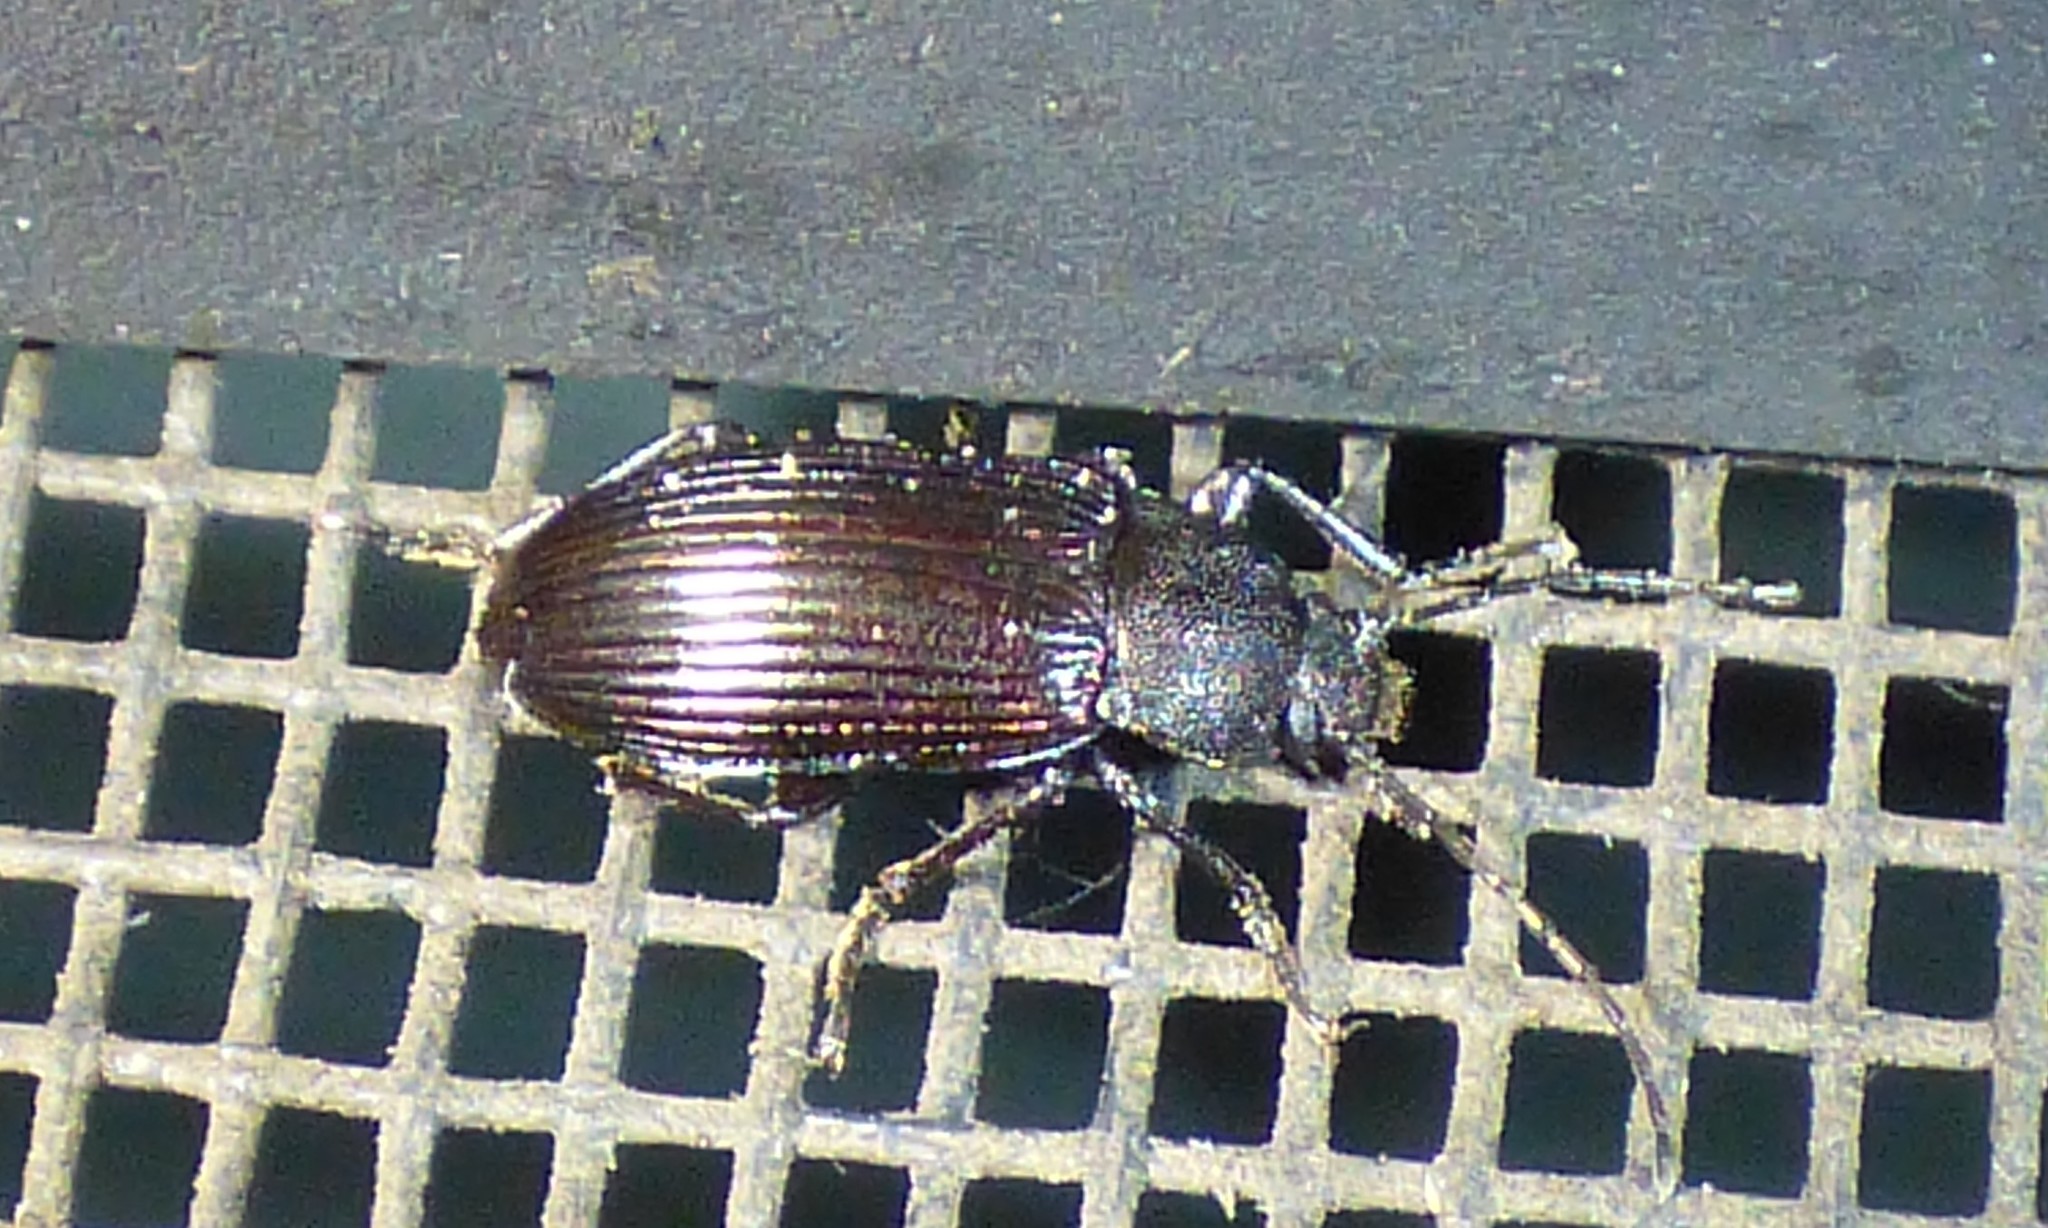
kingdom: Animalia
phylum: Arthropoda
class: Insecta
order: Coleoptera
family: Tenebrionidae
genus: Tarpela
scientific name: Tarpela venusta
